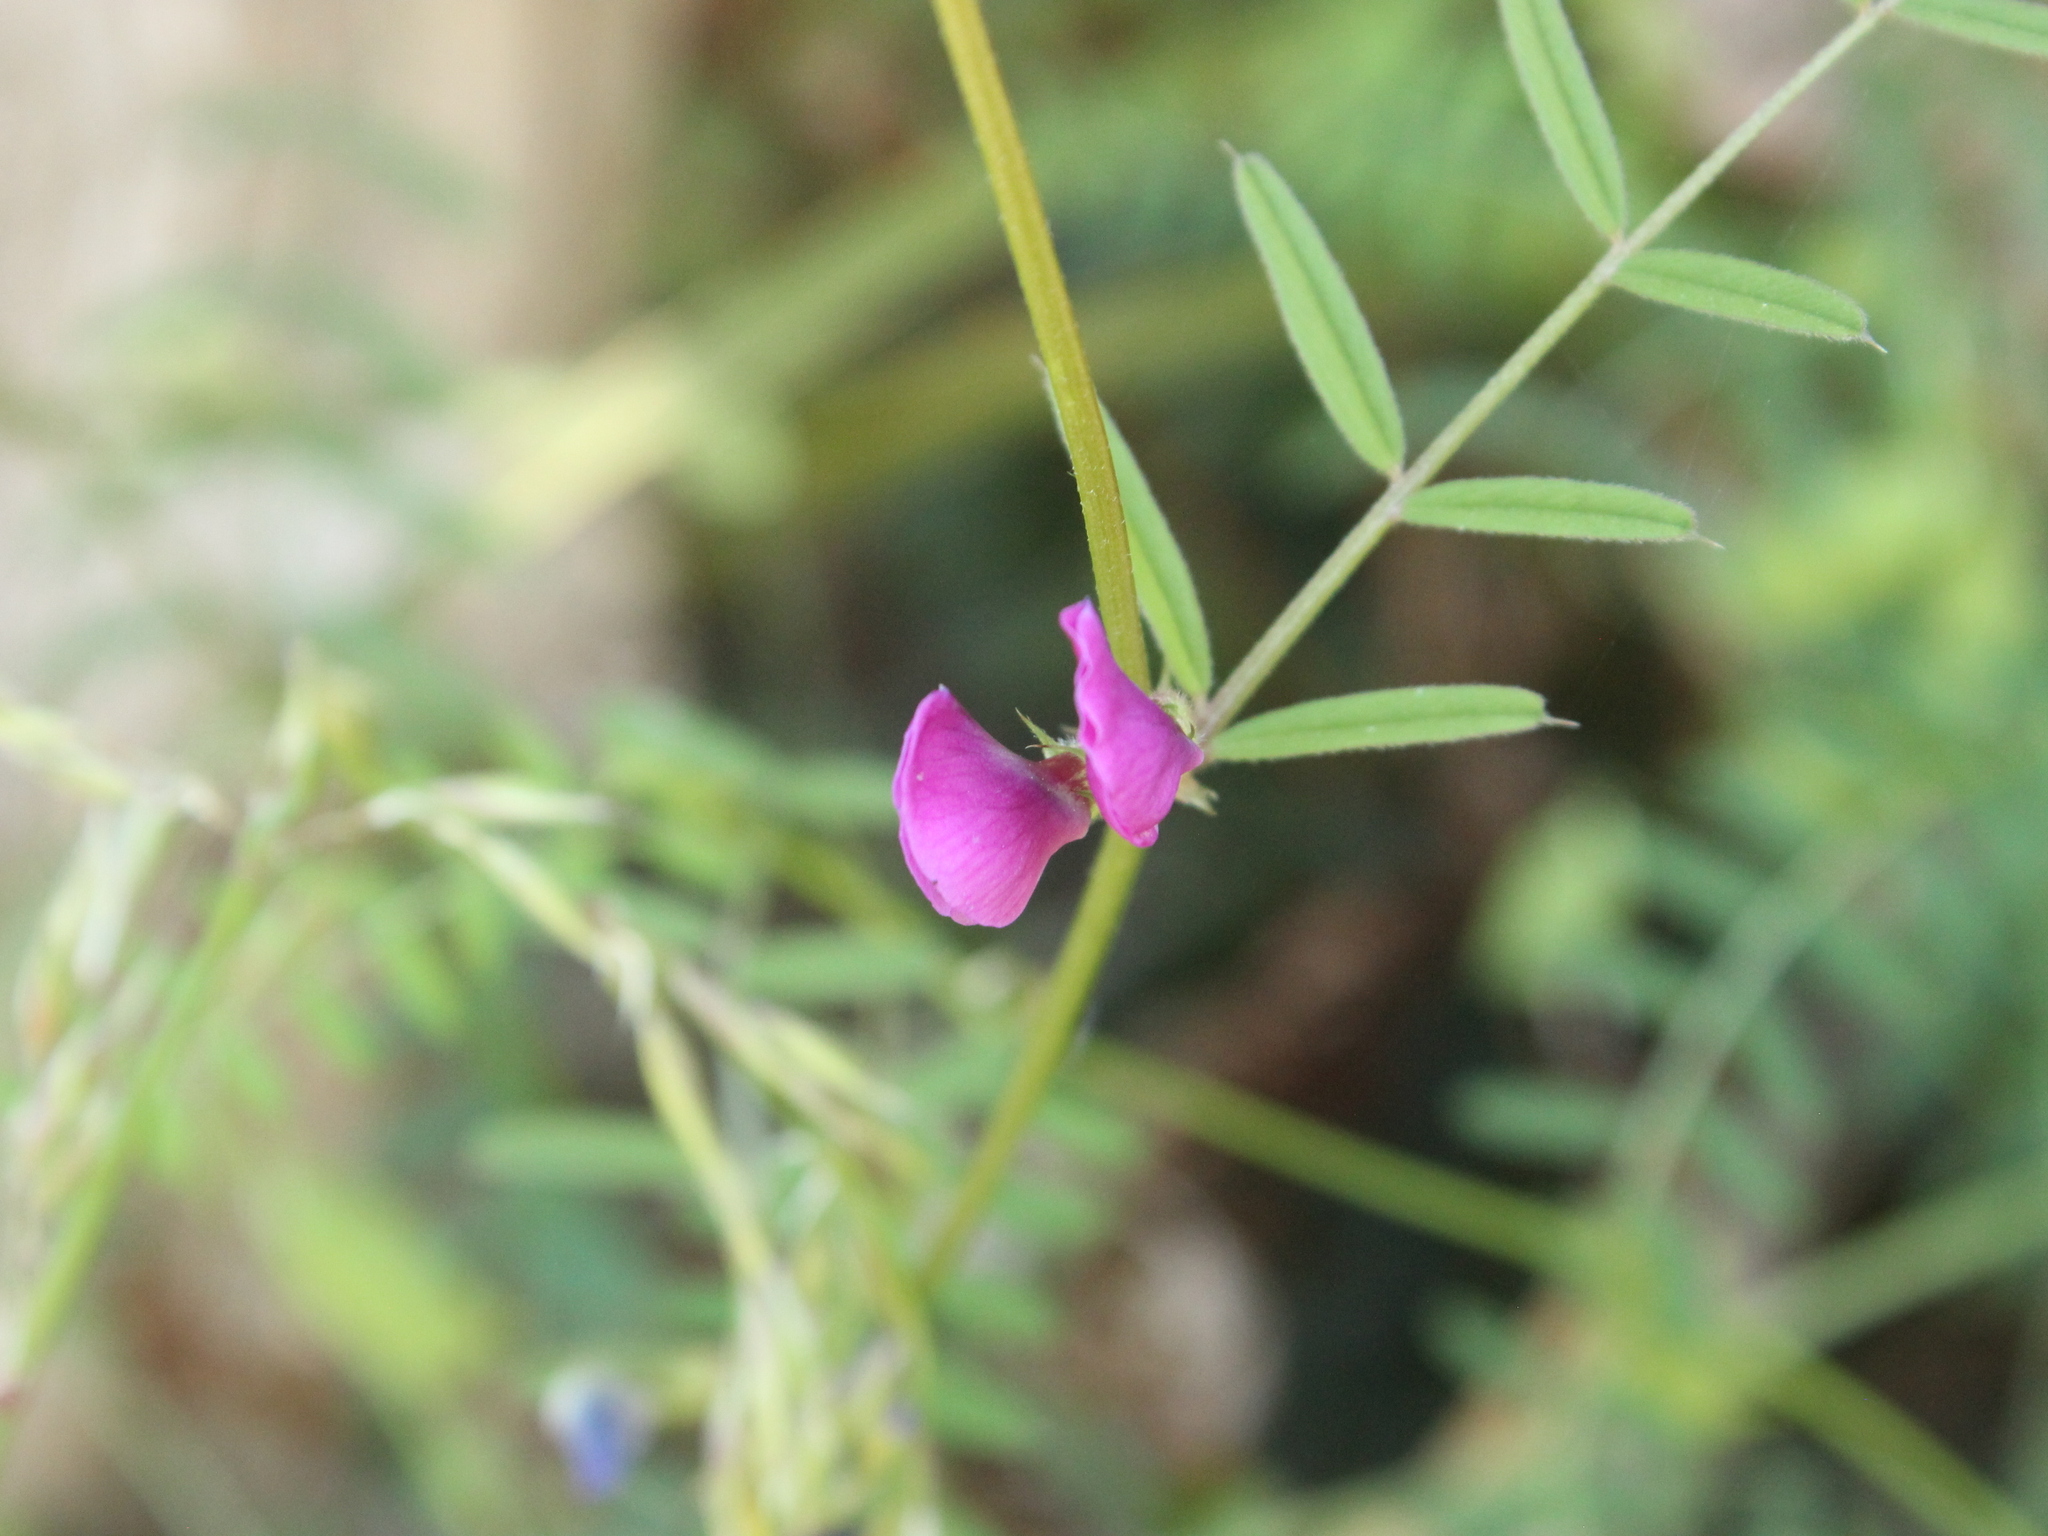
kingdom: Plantae
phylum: Tracheophyta
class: Magnoliopsida
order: Fabales
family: Fabaceae
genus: Vicia
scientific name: Vicia sativa
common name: Garden vetch
